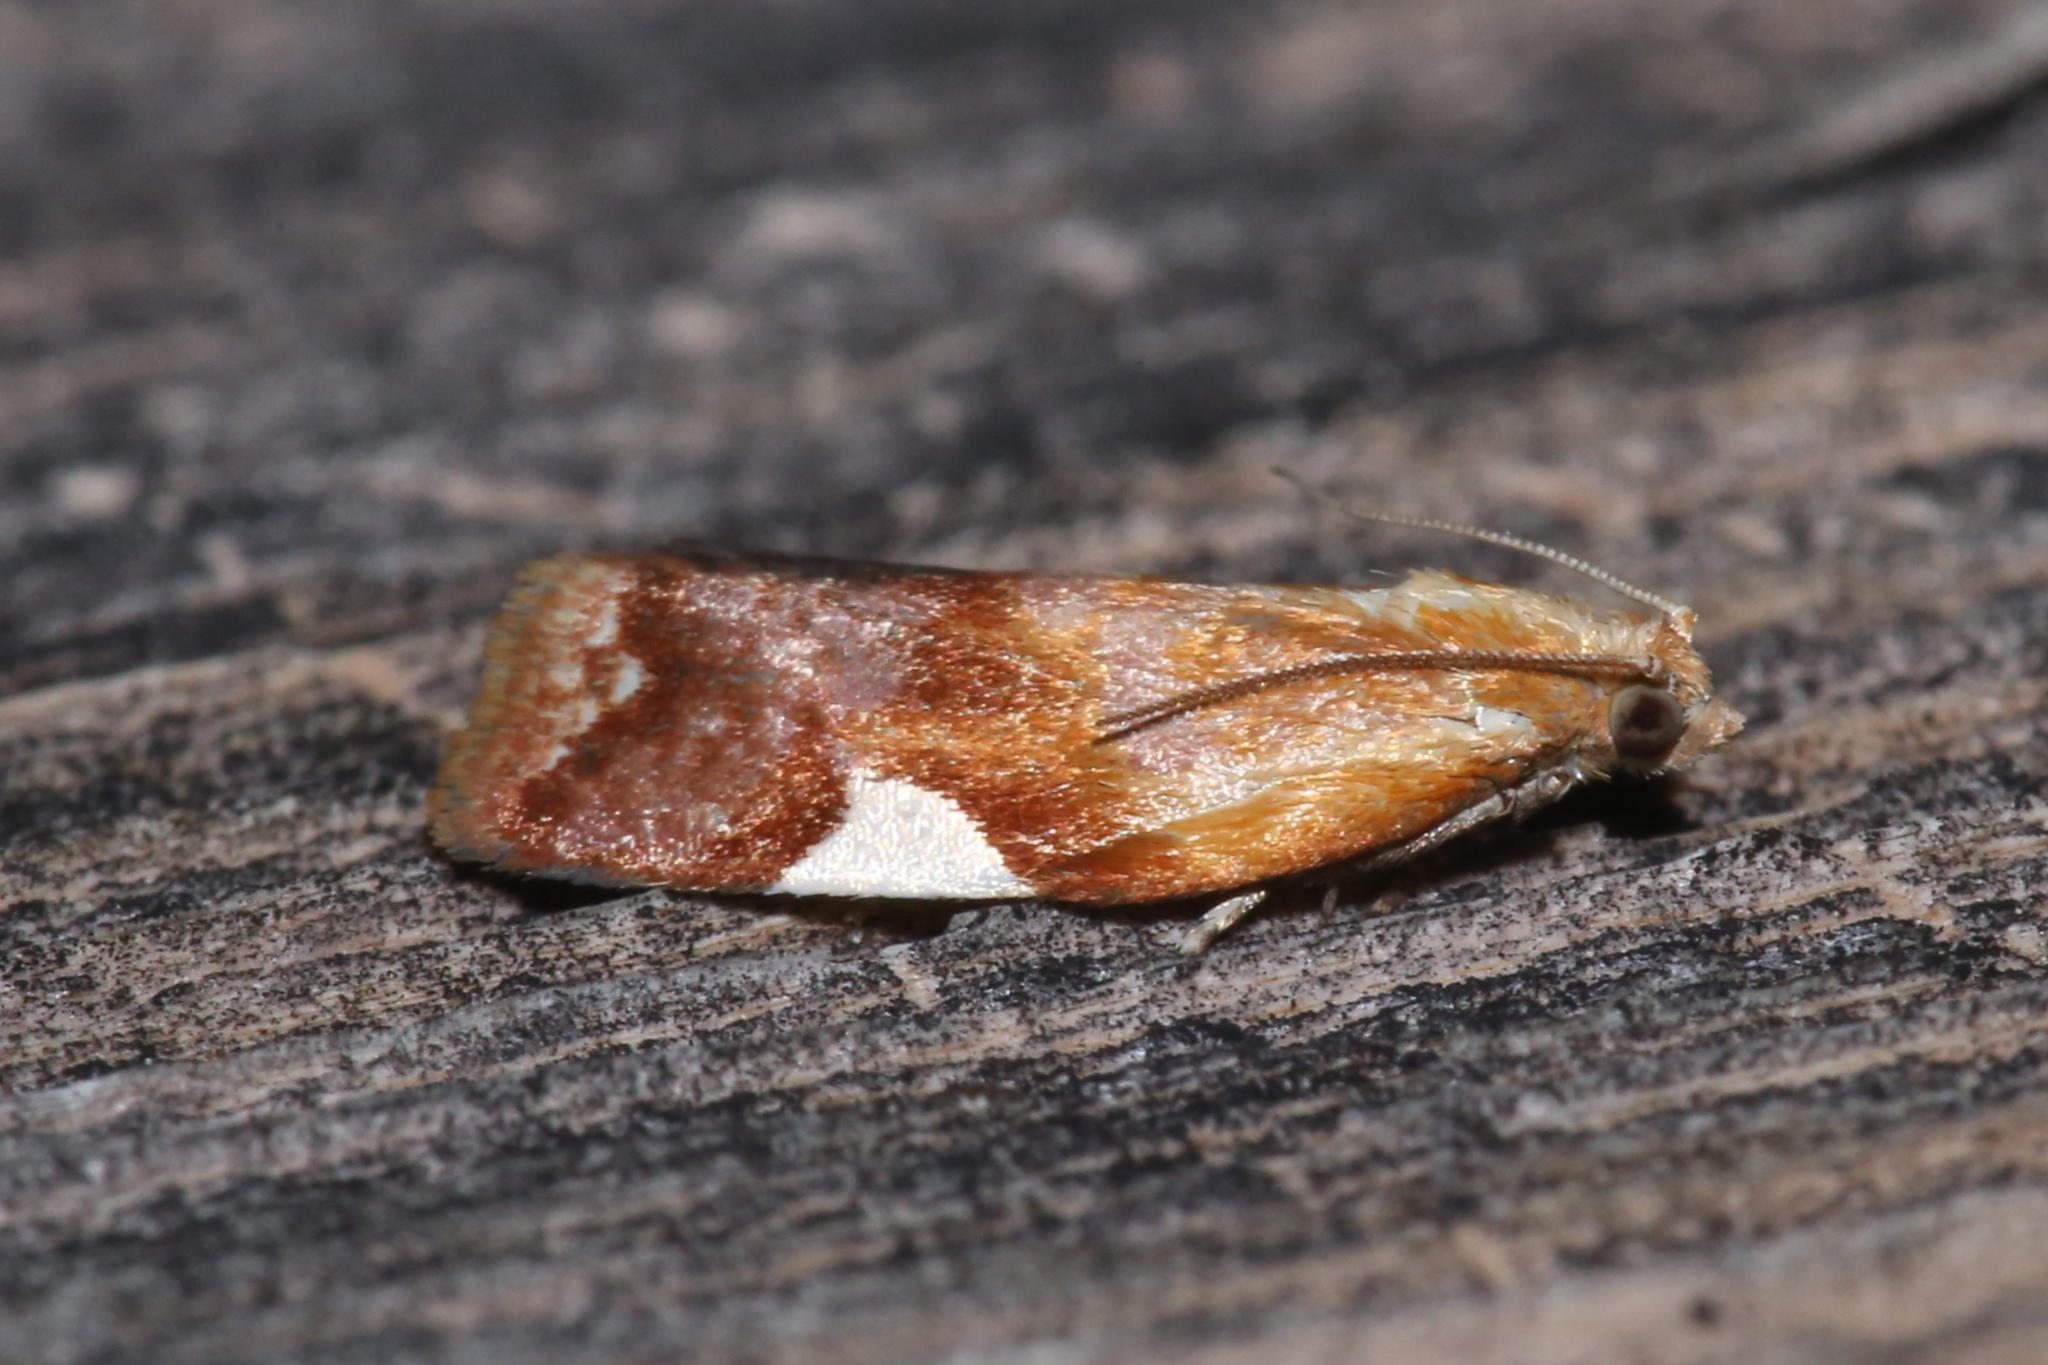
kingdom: Animalia
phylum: Arthropoda
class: Insecta
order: Lepidoptera
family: Tortricidae
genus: Clepsis
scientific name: Clepsis persicana
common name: White triangle tortrix
